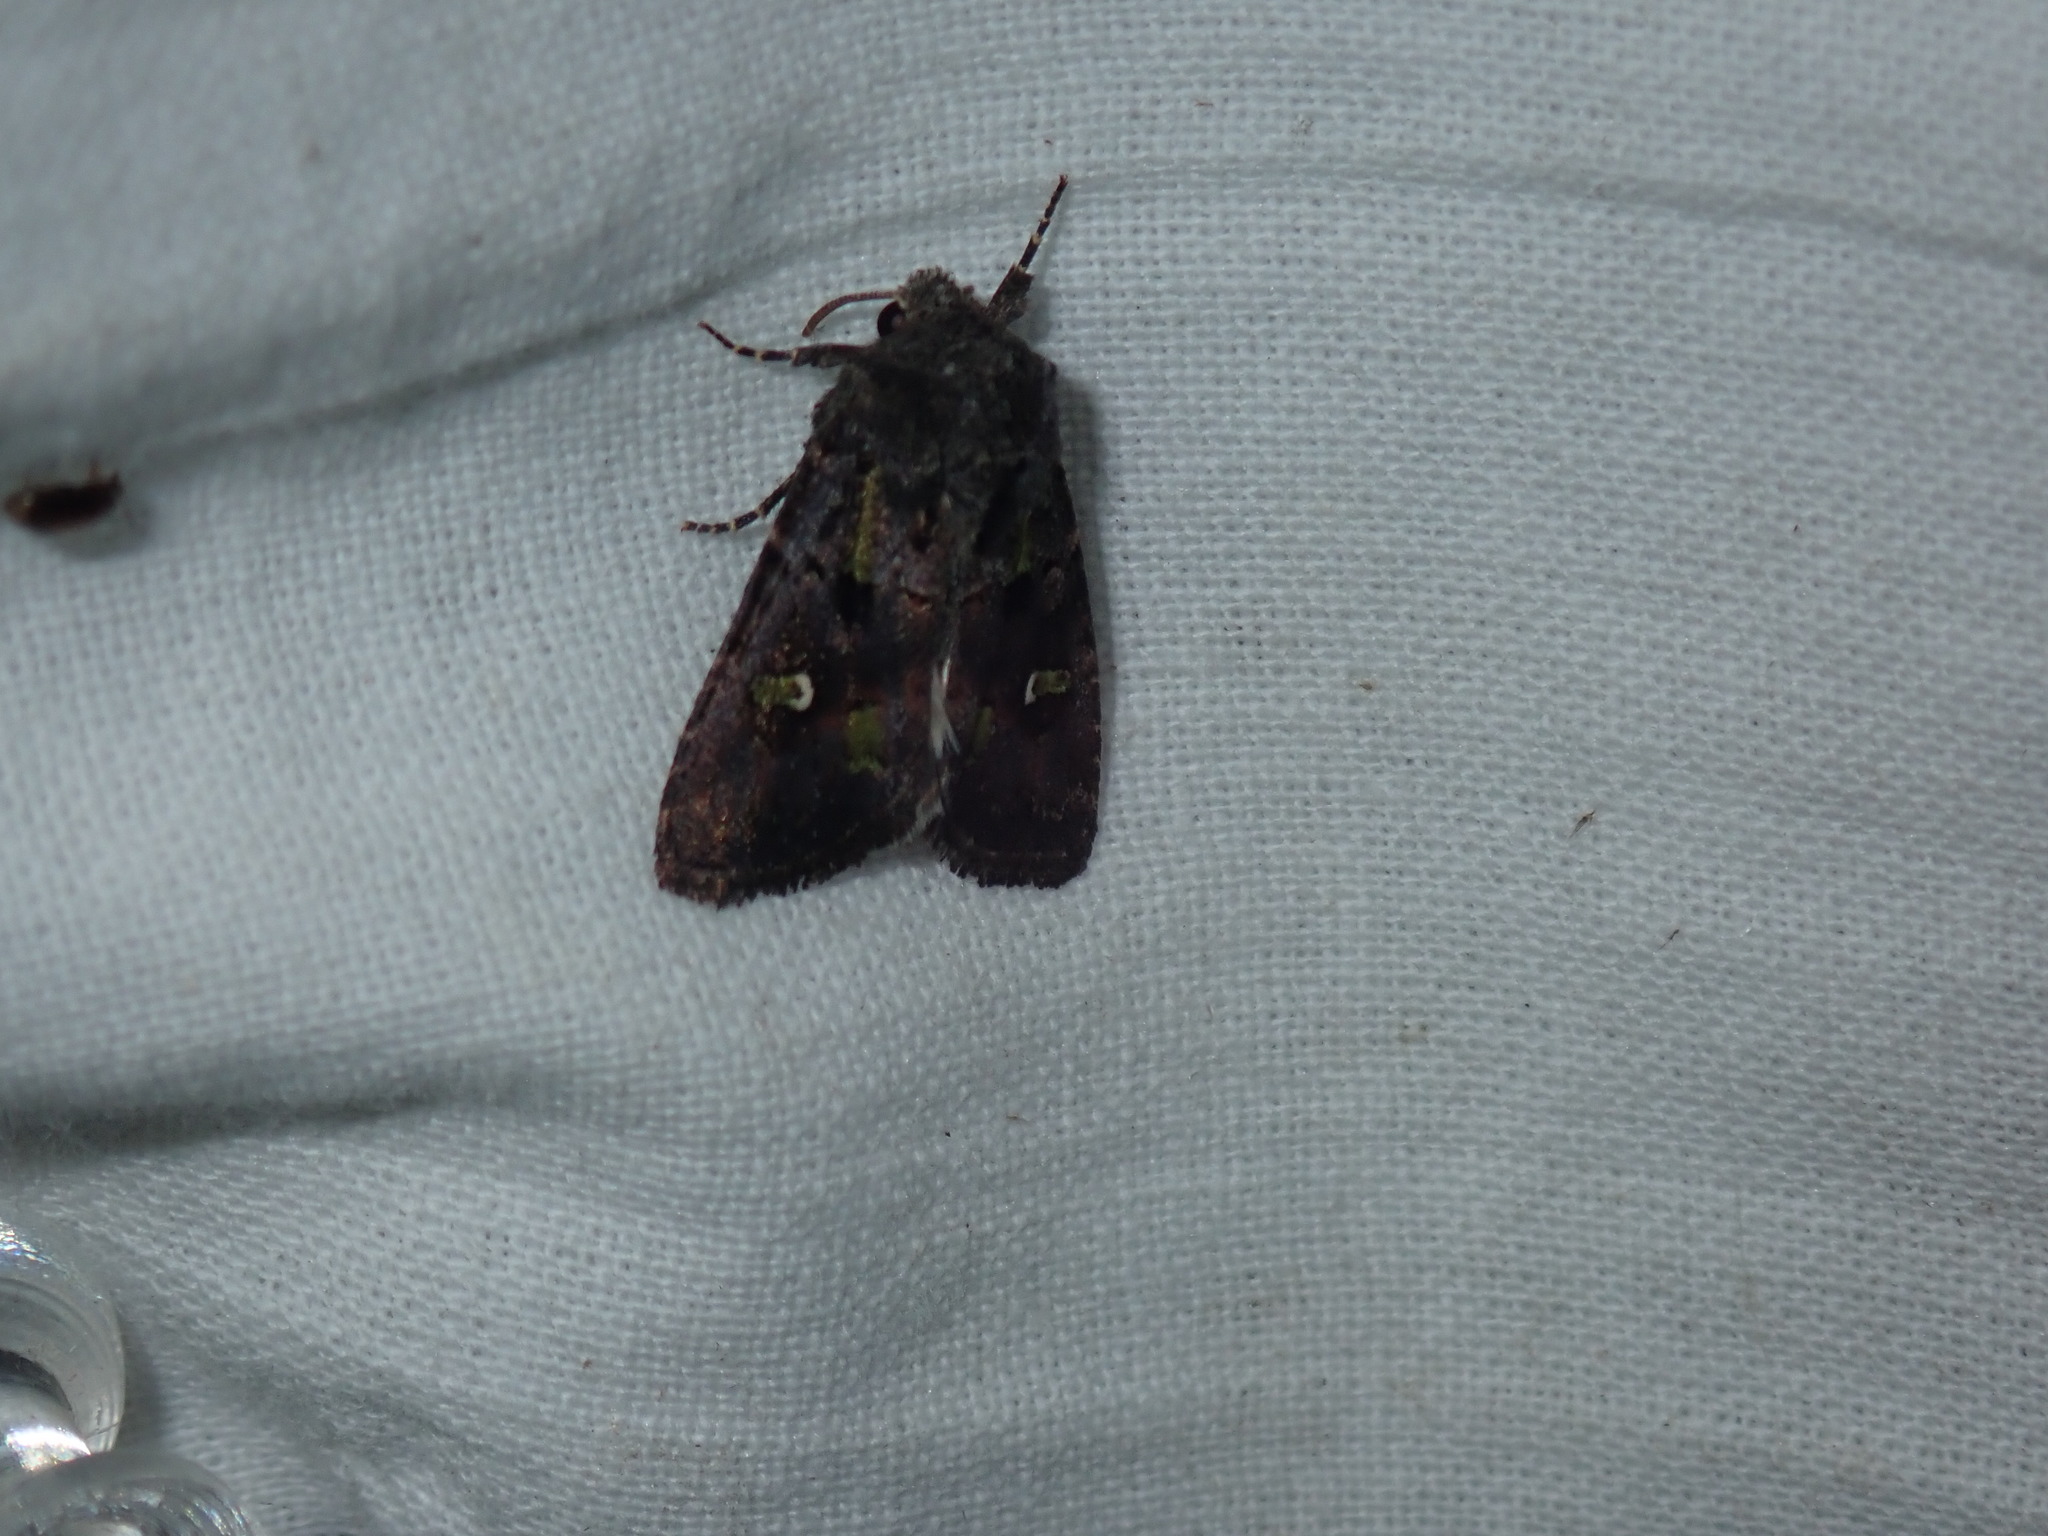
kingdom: Animalia
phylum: Arthropoda
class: Insecta
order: Lepidoptera
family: Noctuidae
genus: Lacinipolia
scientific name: Lacinipolia renigera
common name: Kidney-spotted minor
